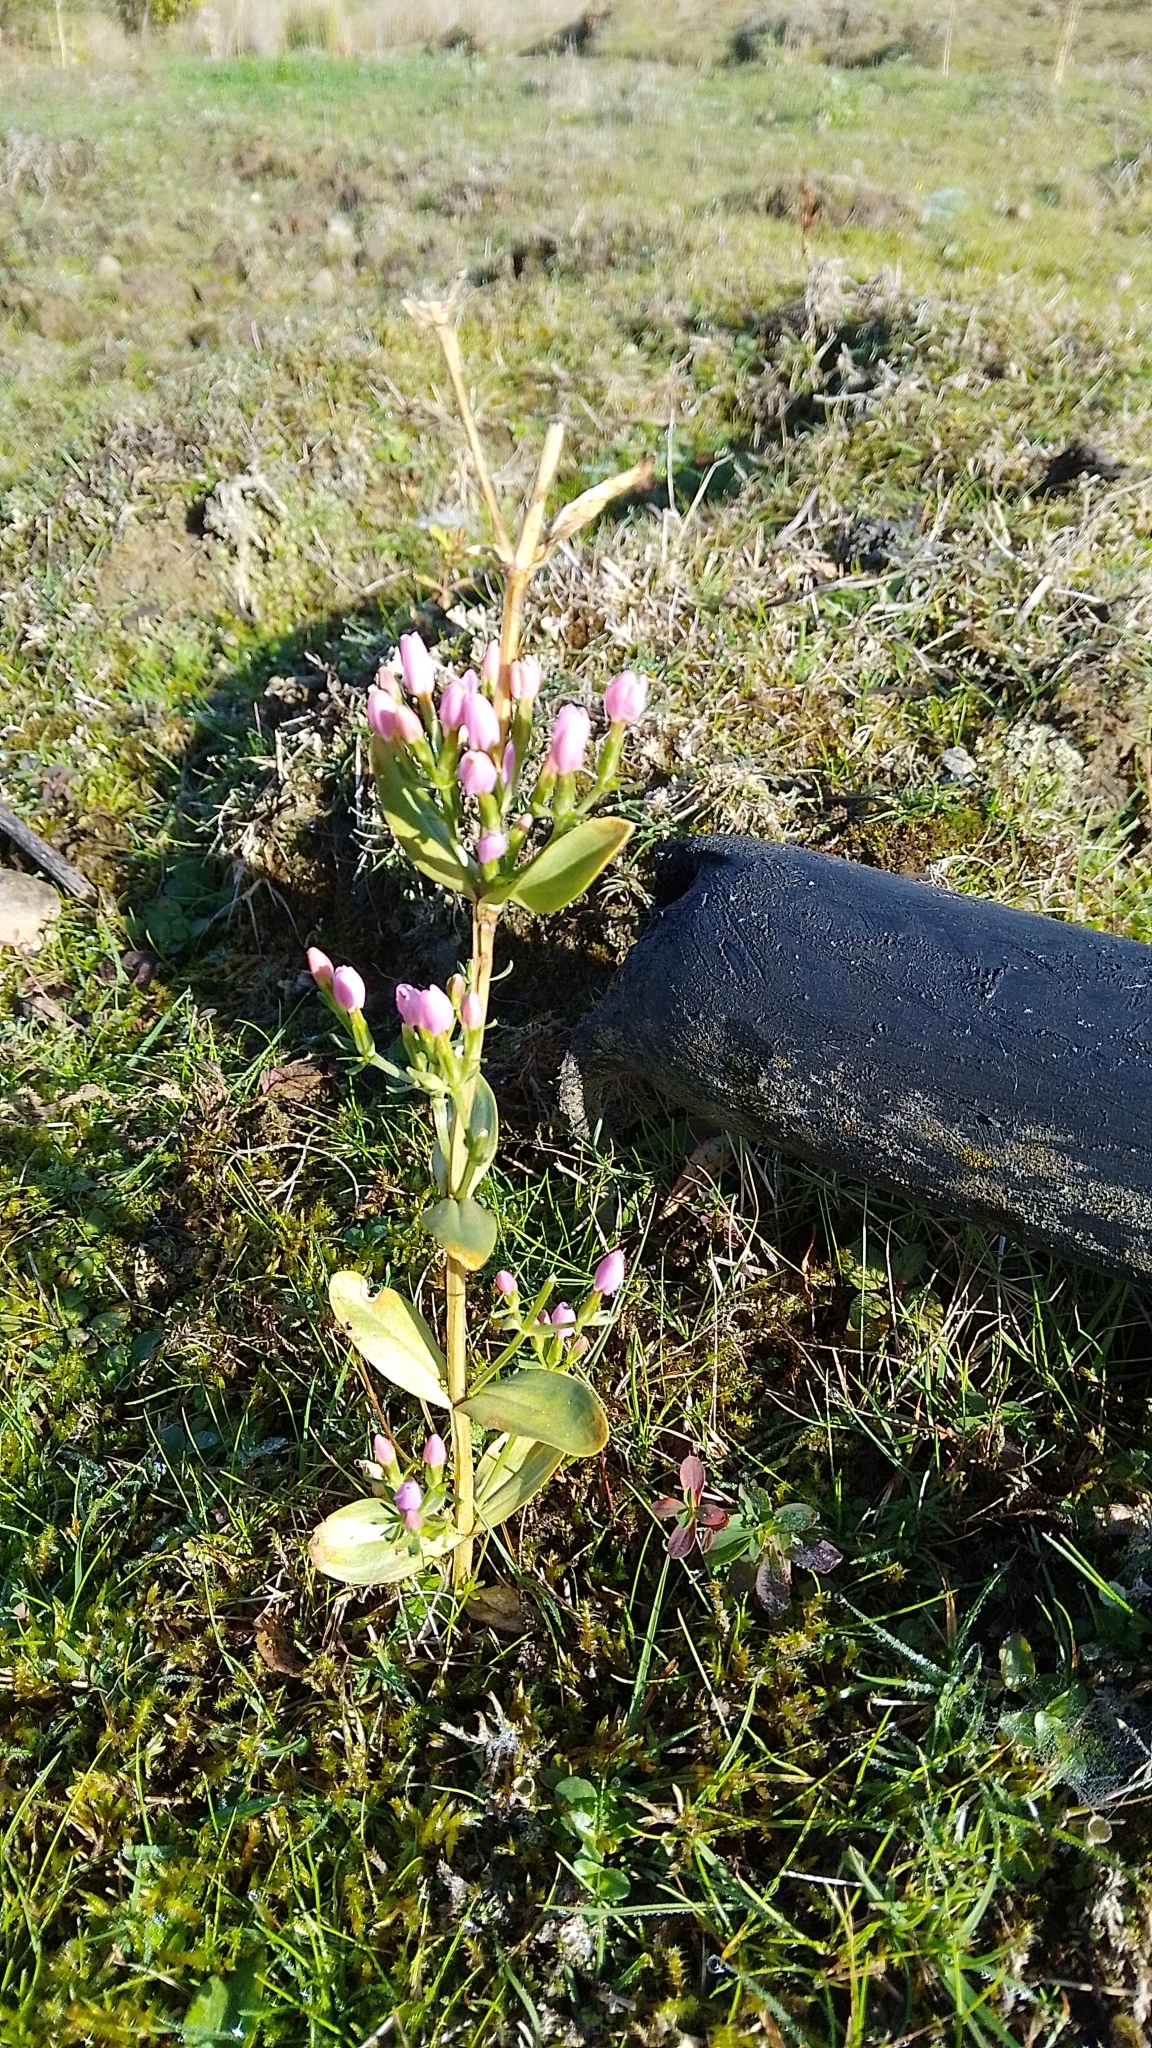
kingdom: Plantae
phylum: Tracheophyta
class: Magnoliopsida
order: Gentianales
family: Gentianaceae
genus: Centaurium
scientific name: Centaurium erythraea
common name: Common centaury
